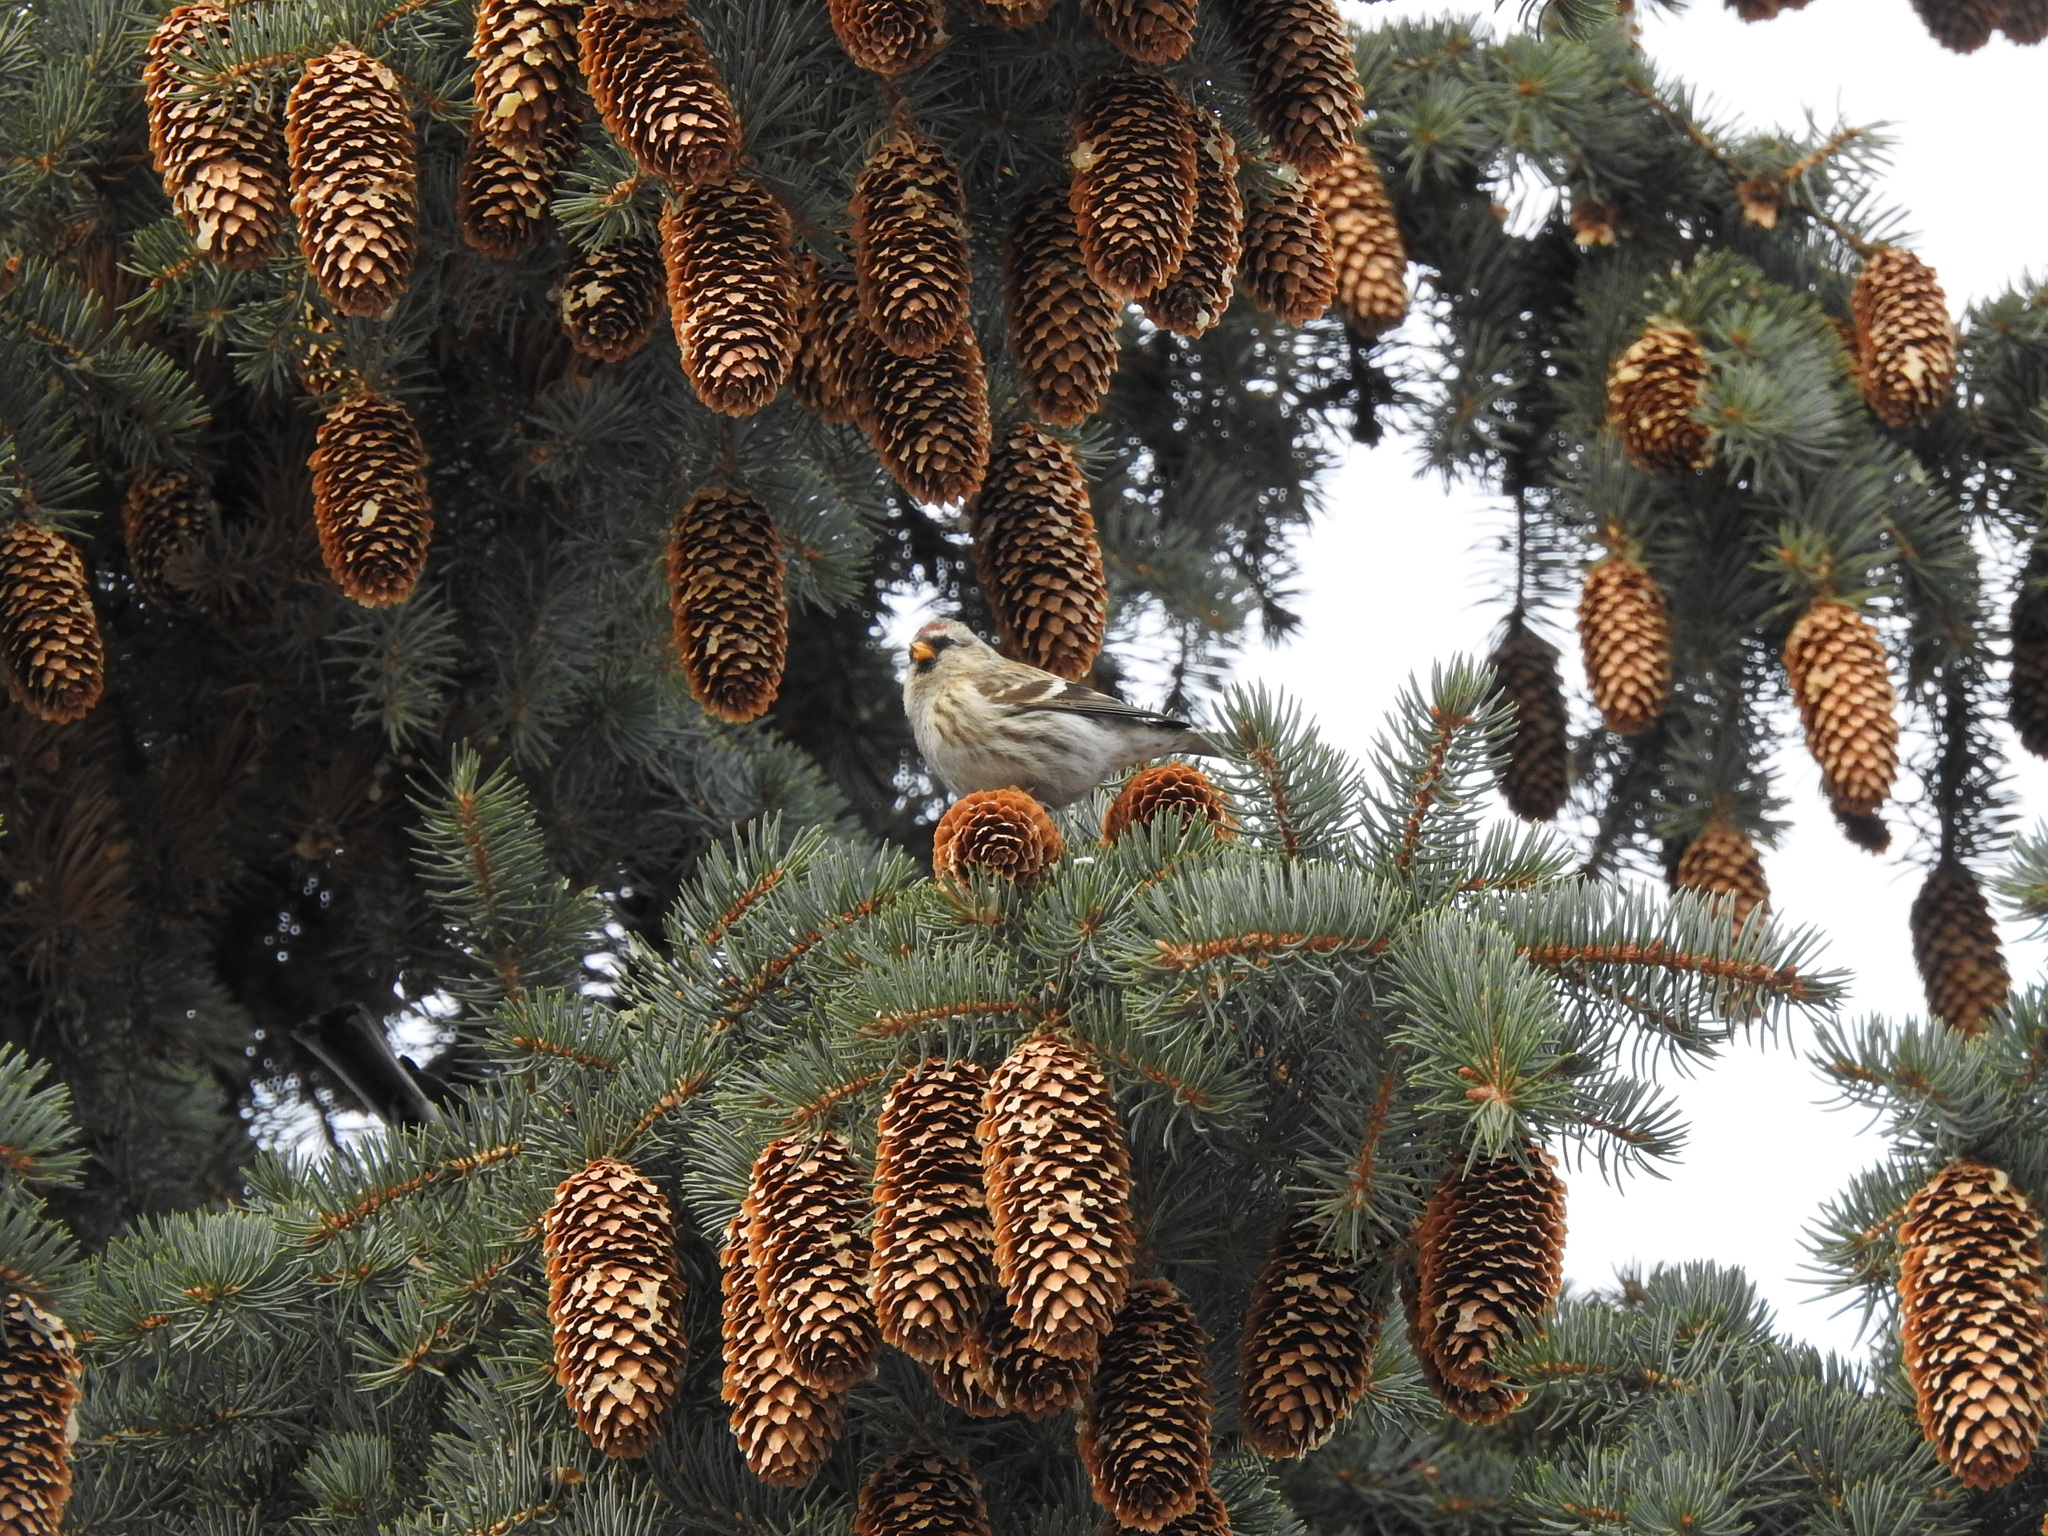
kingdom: Animalia
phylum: Chordata
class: Aves
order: Passeriformes
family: Fringillidae
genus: Acanthis
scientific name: Acanthis flammea
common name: Common redpoll
